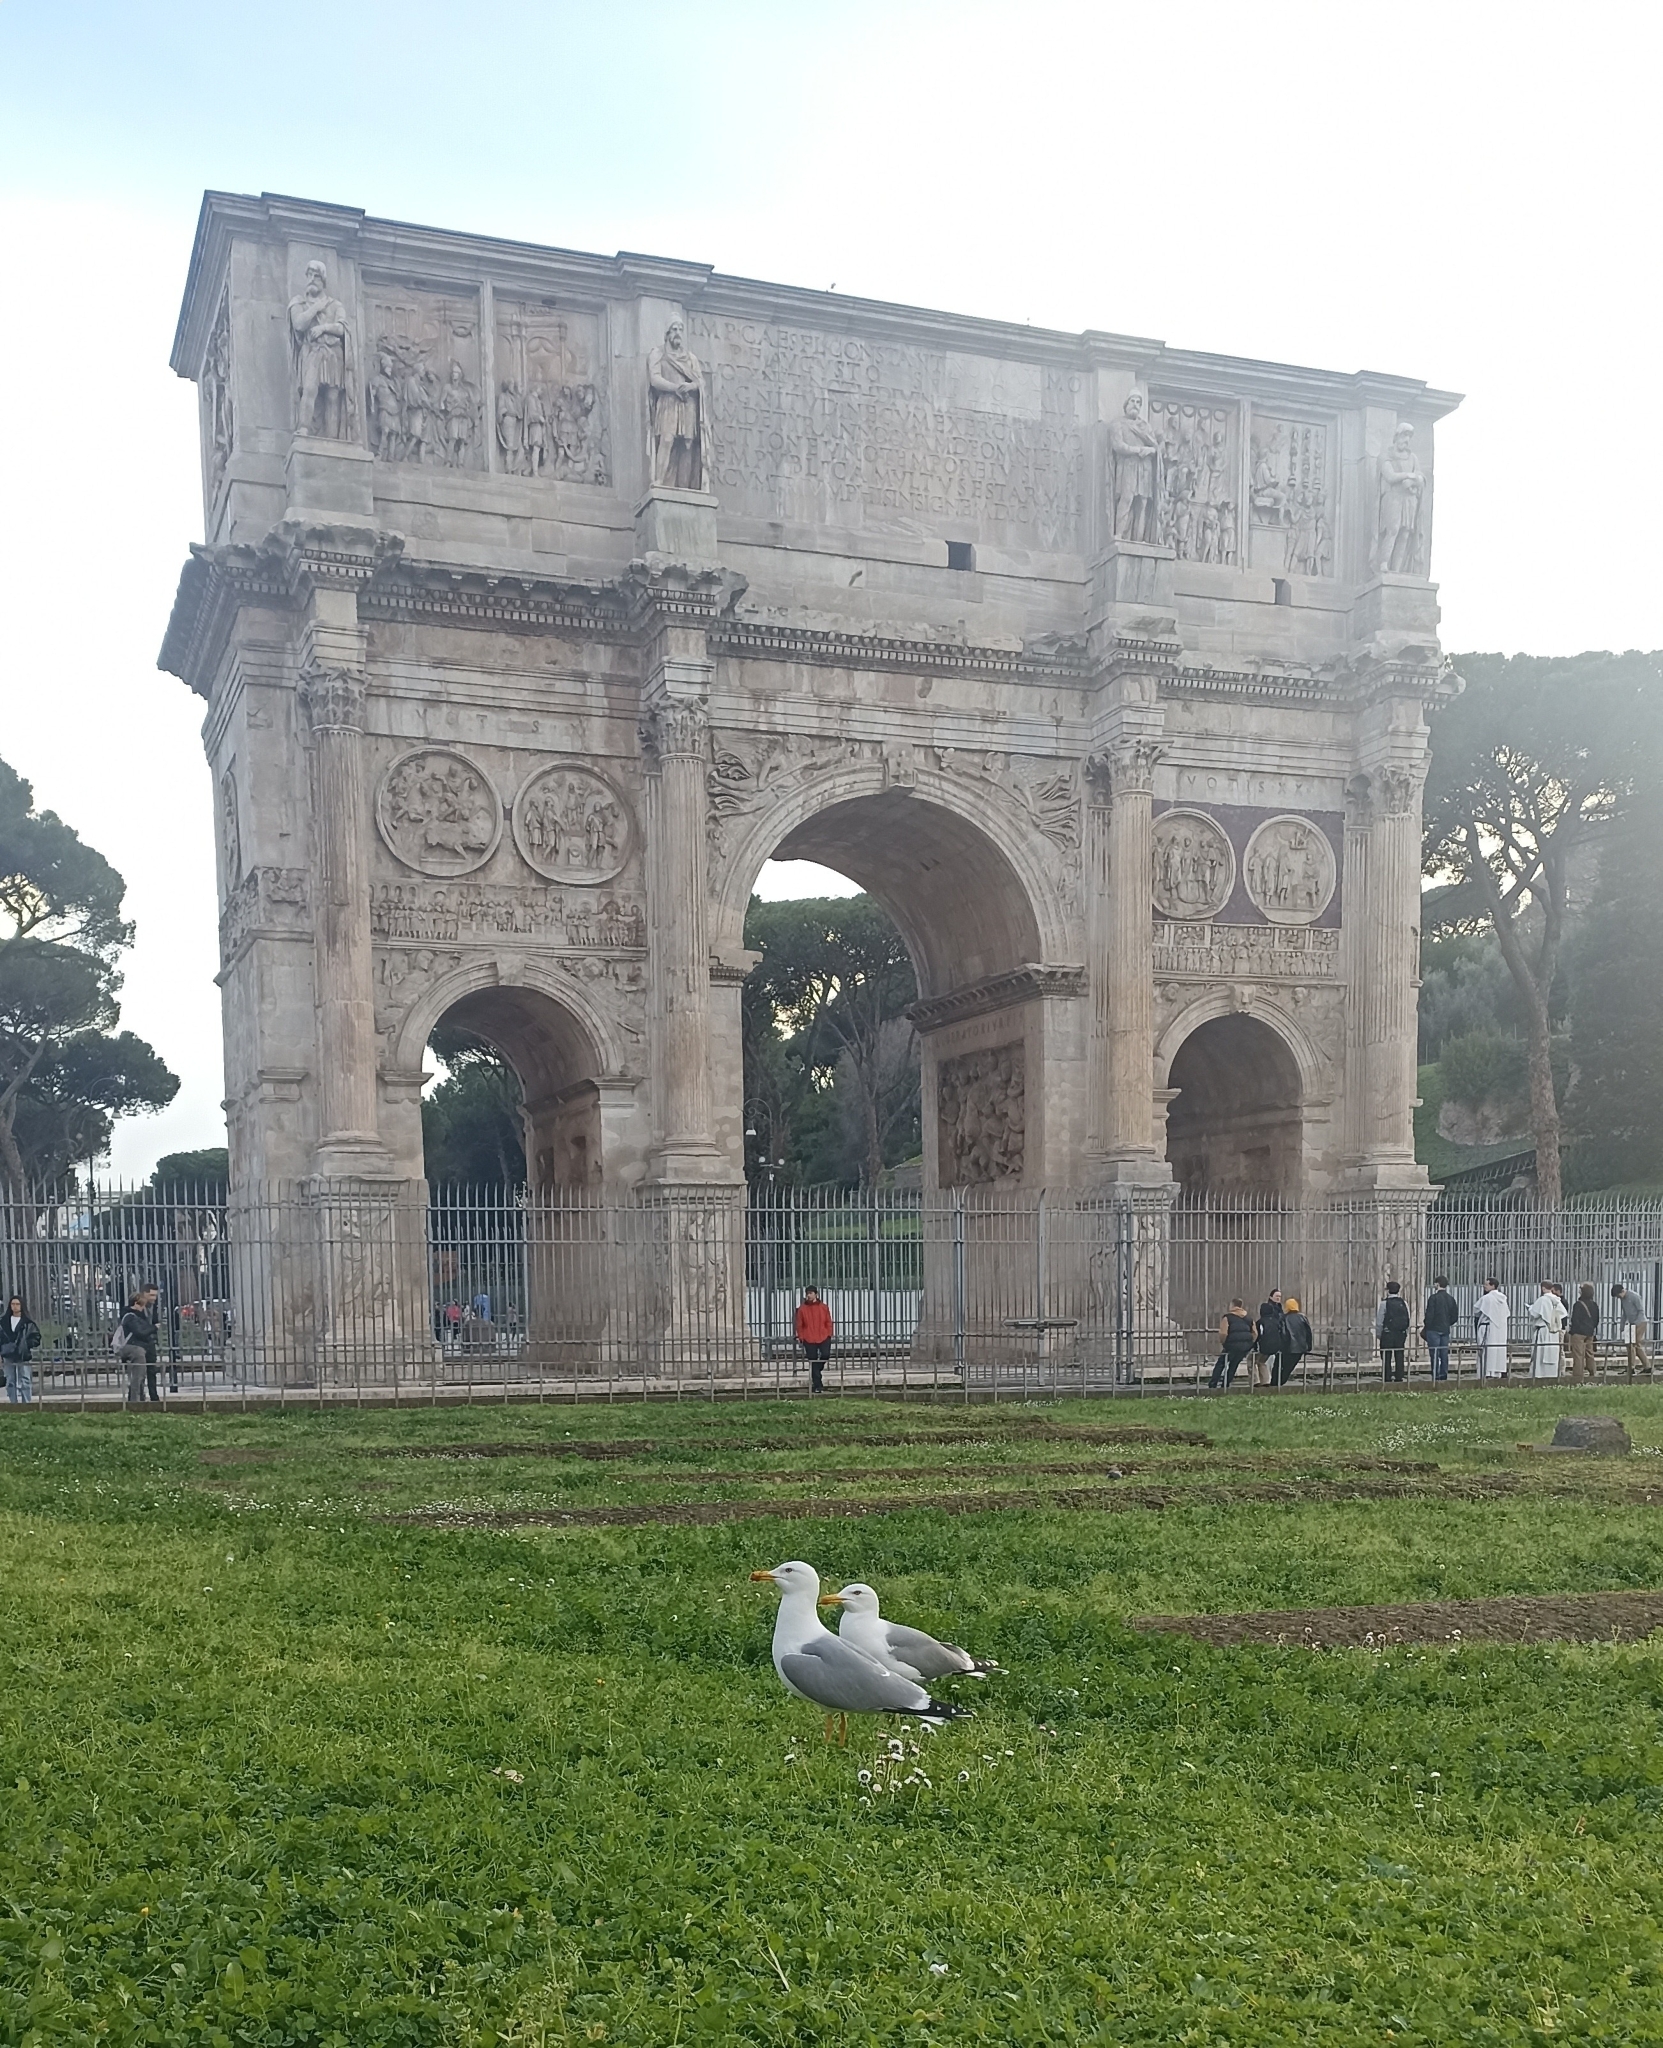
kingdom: Animalia
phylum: Chordata
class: Aves
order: Charadriiformes
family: Laridae
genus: Larus
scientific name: Larus michahellis
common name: Yellow-legged gull
